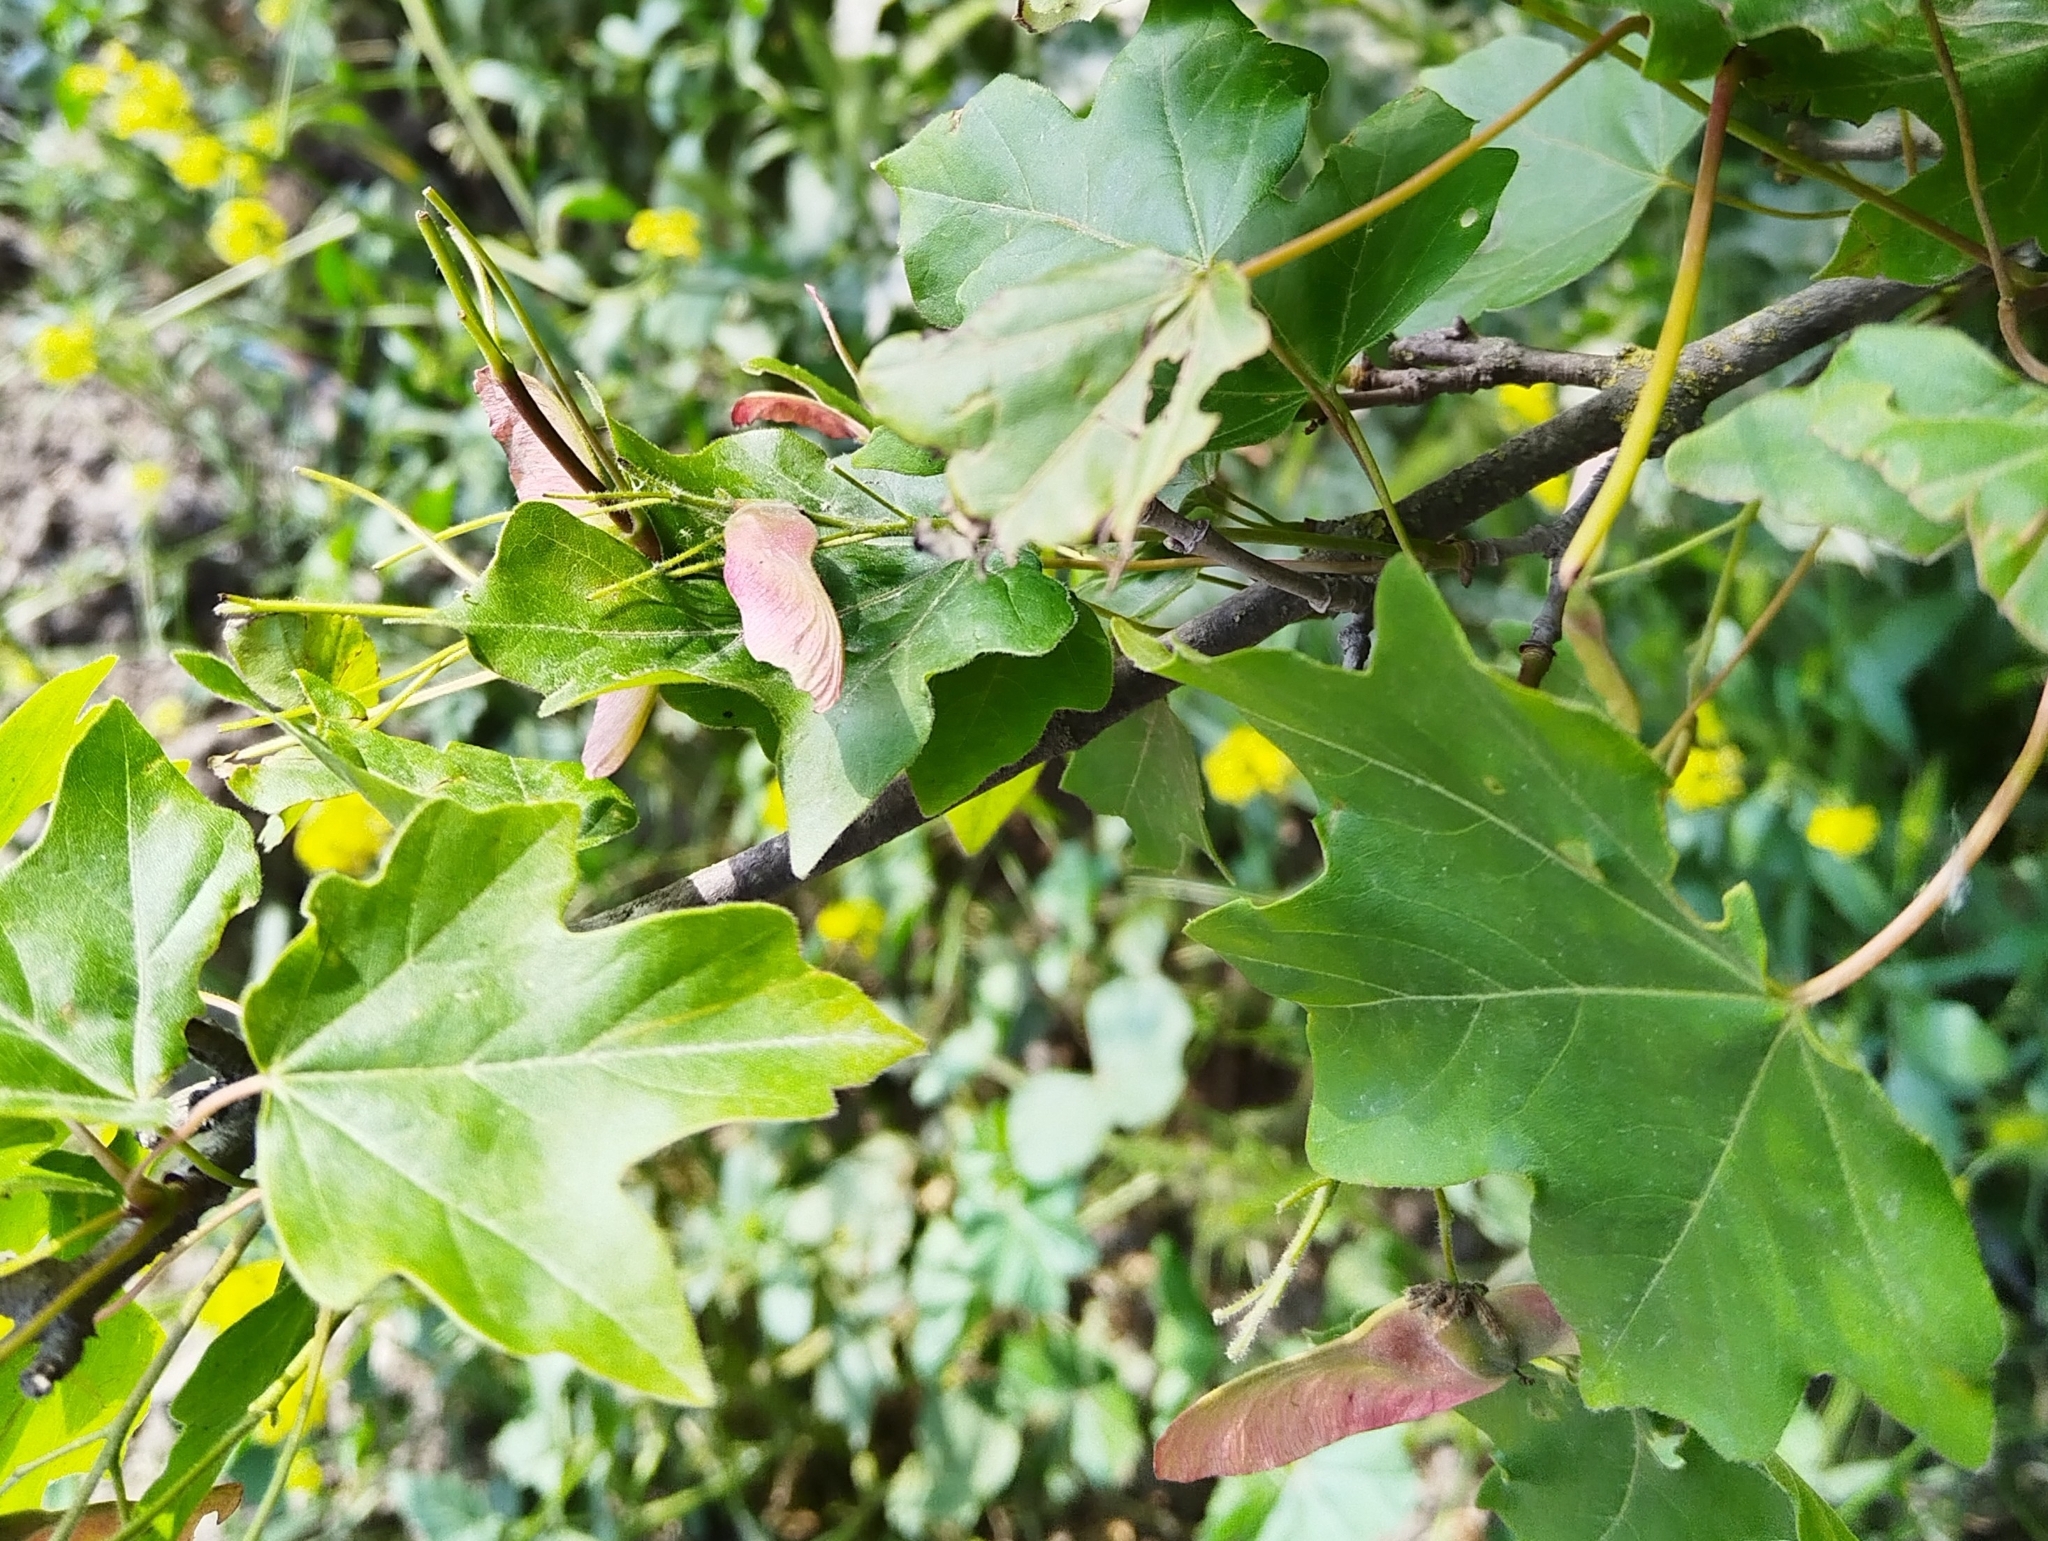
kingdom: Plantae
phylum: Tracheophyta
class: Magnoliopsida
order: Sapindales
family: Sapindaceae
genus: Acer
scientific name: Acer campestre
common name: Field maple
